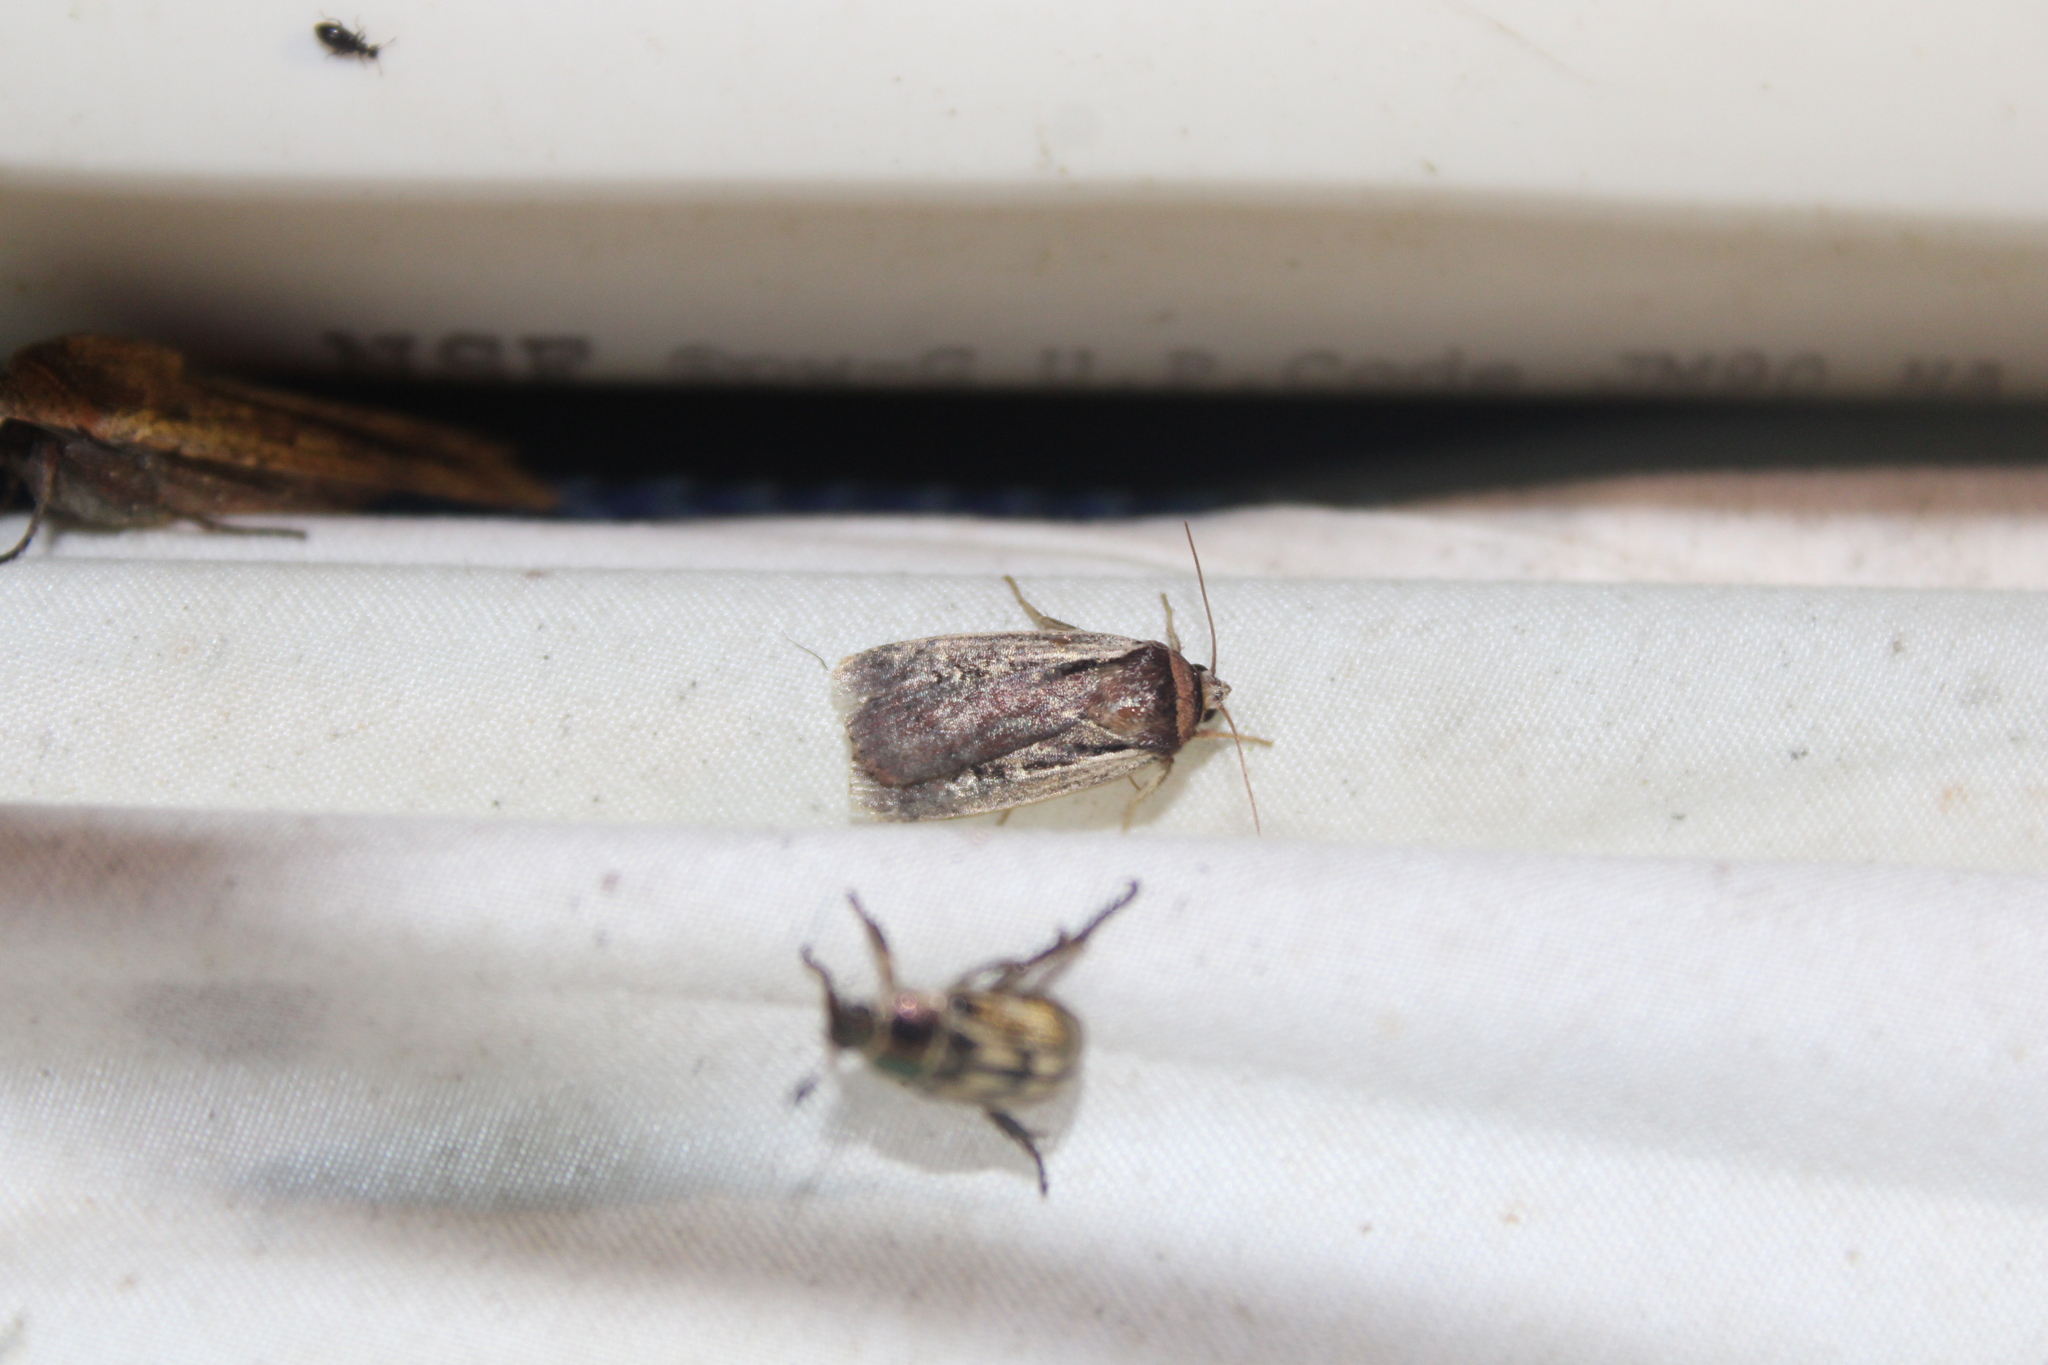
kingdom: Animalia
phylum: Arthropoda
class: Insecta
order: Lepidoptera
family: Noctuidae
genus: Ochropleura
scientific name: Ochropleura implecta
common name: Flame-shouldered dart
